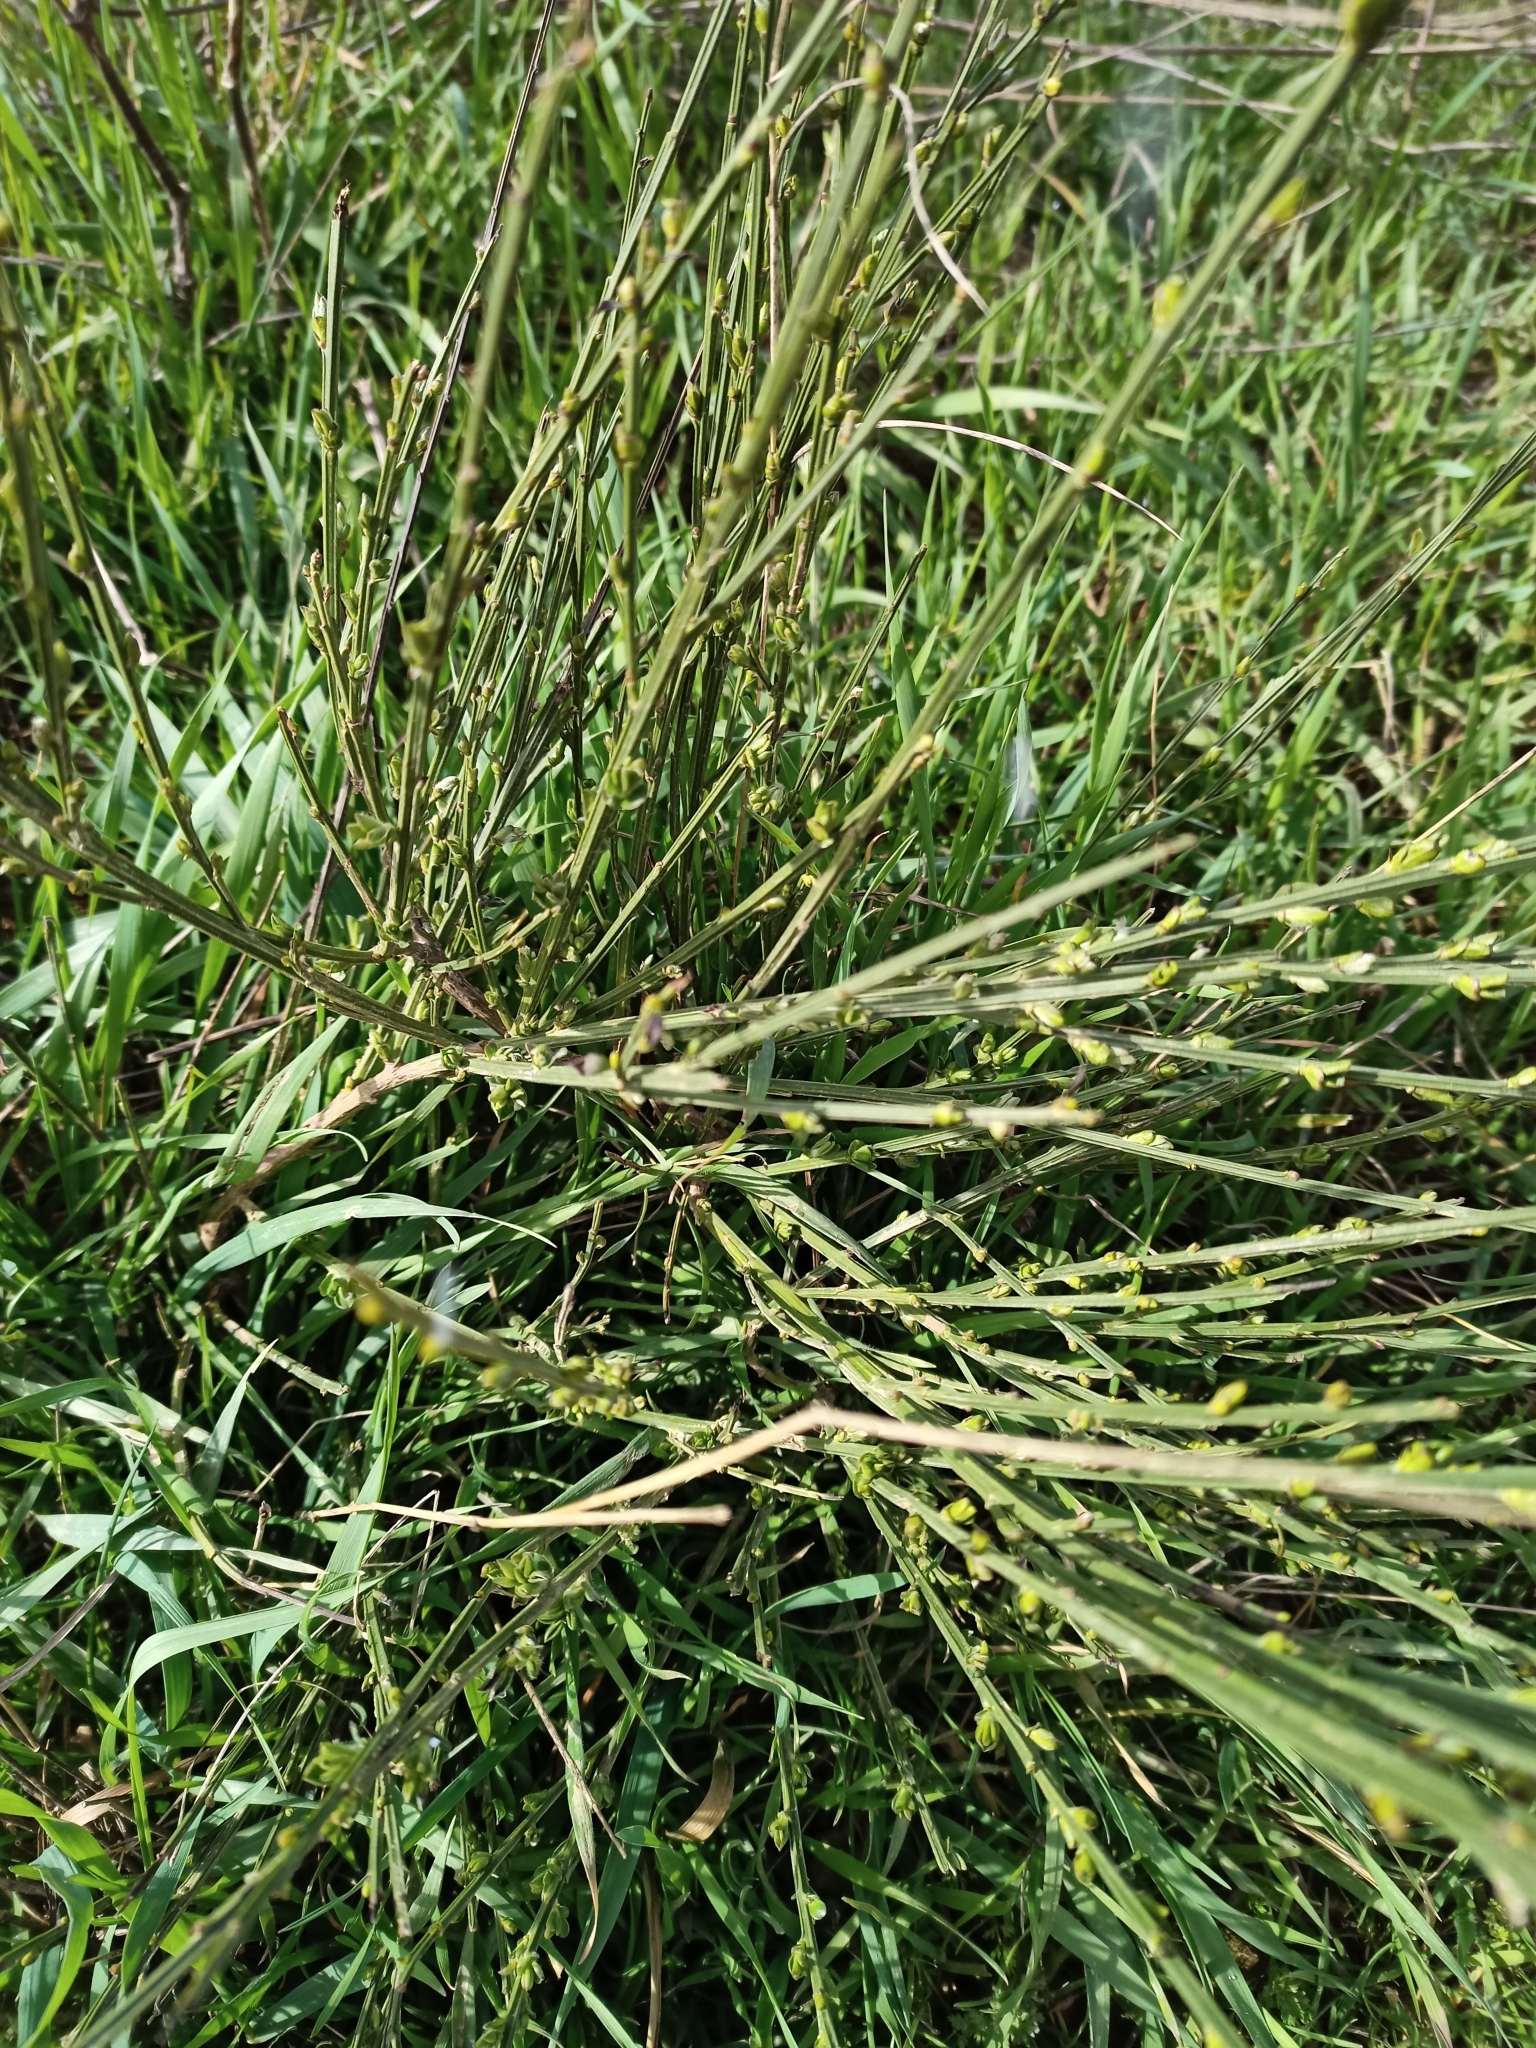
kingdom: Plantae
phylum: Tracheophyta
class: Magnoliopsida
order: Fabales
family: Fabaceae
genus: Cytisus
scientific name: Cytisus scoparius
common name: Scotch broom
